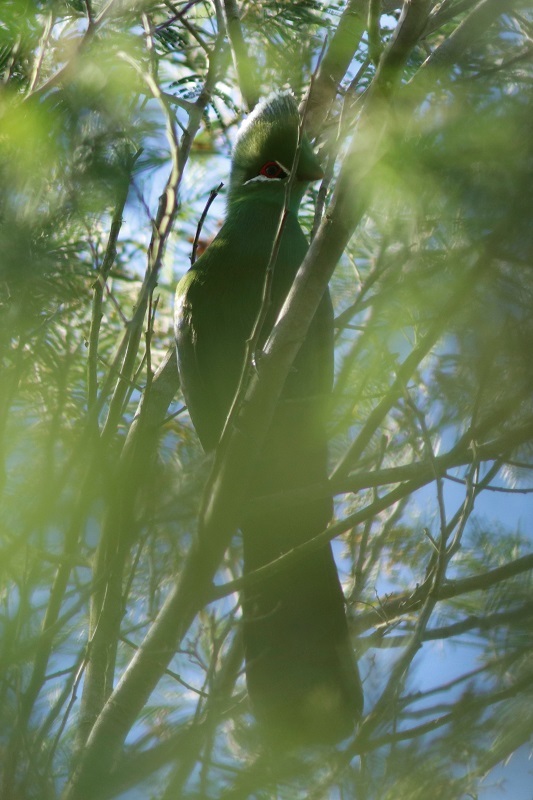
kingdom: Animalia
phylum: Chordata
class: Aves
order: Musophagiformes
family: Musophagidae
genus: Tauraco
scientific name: Tauraco corythaix
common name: Knysna turaco
